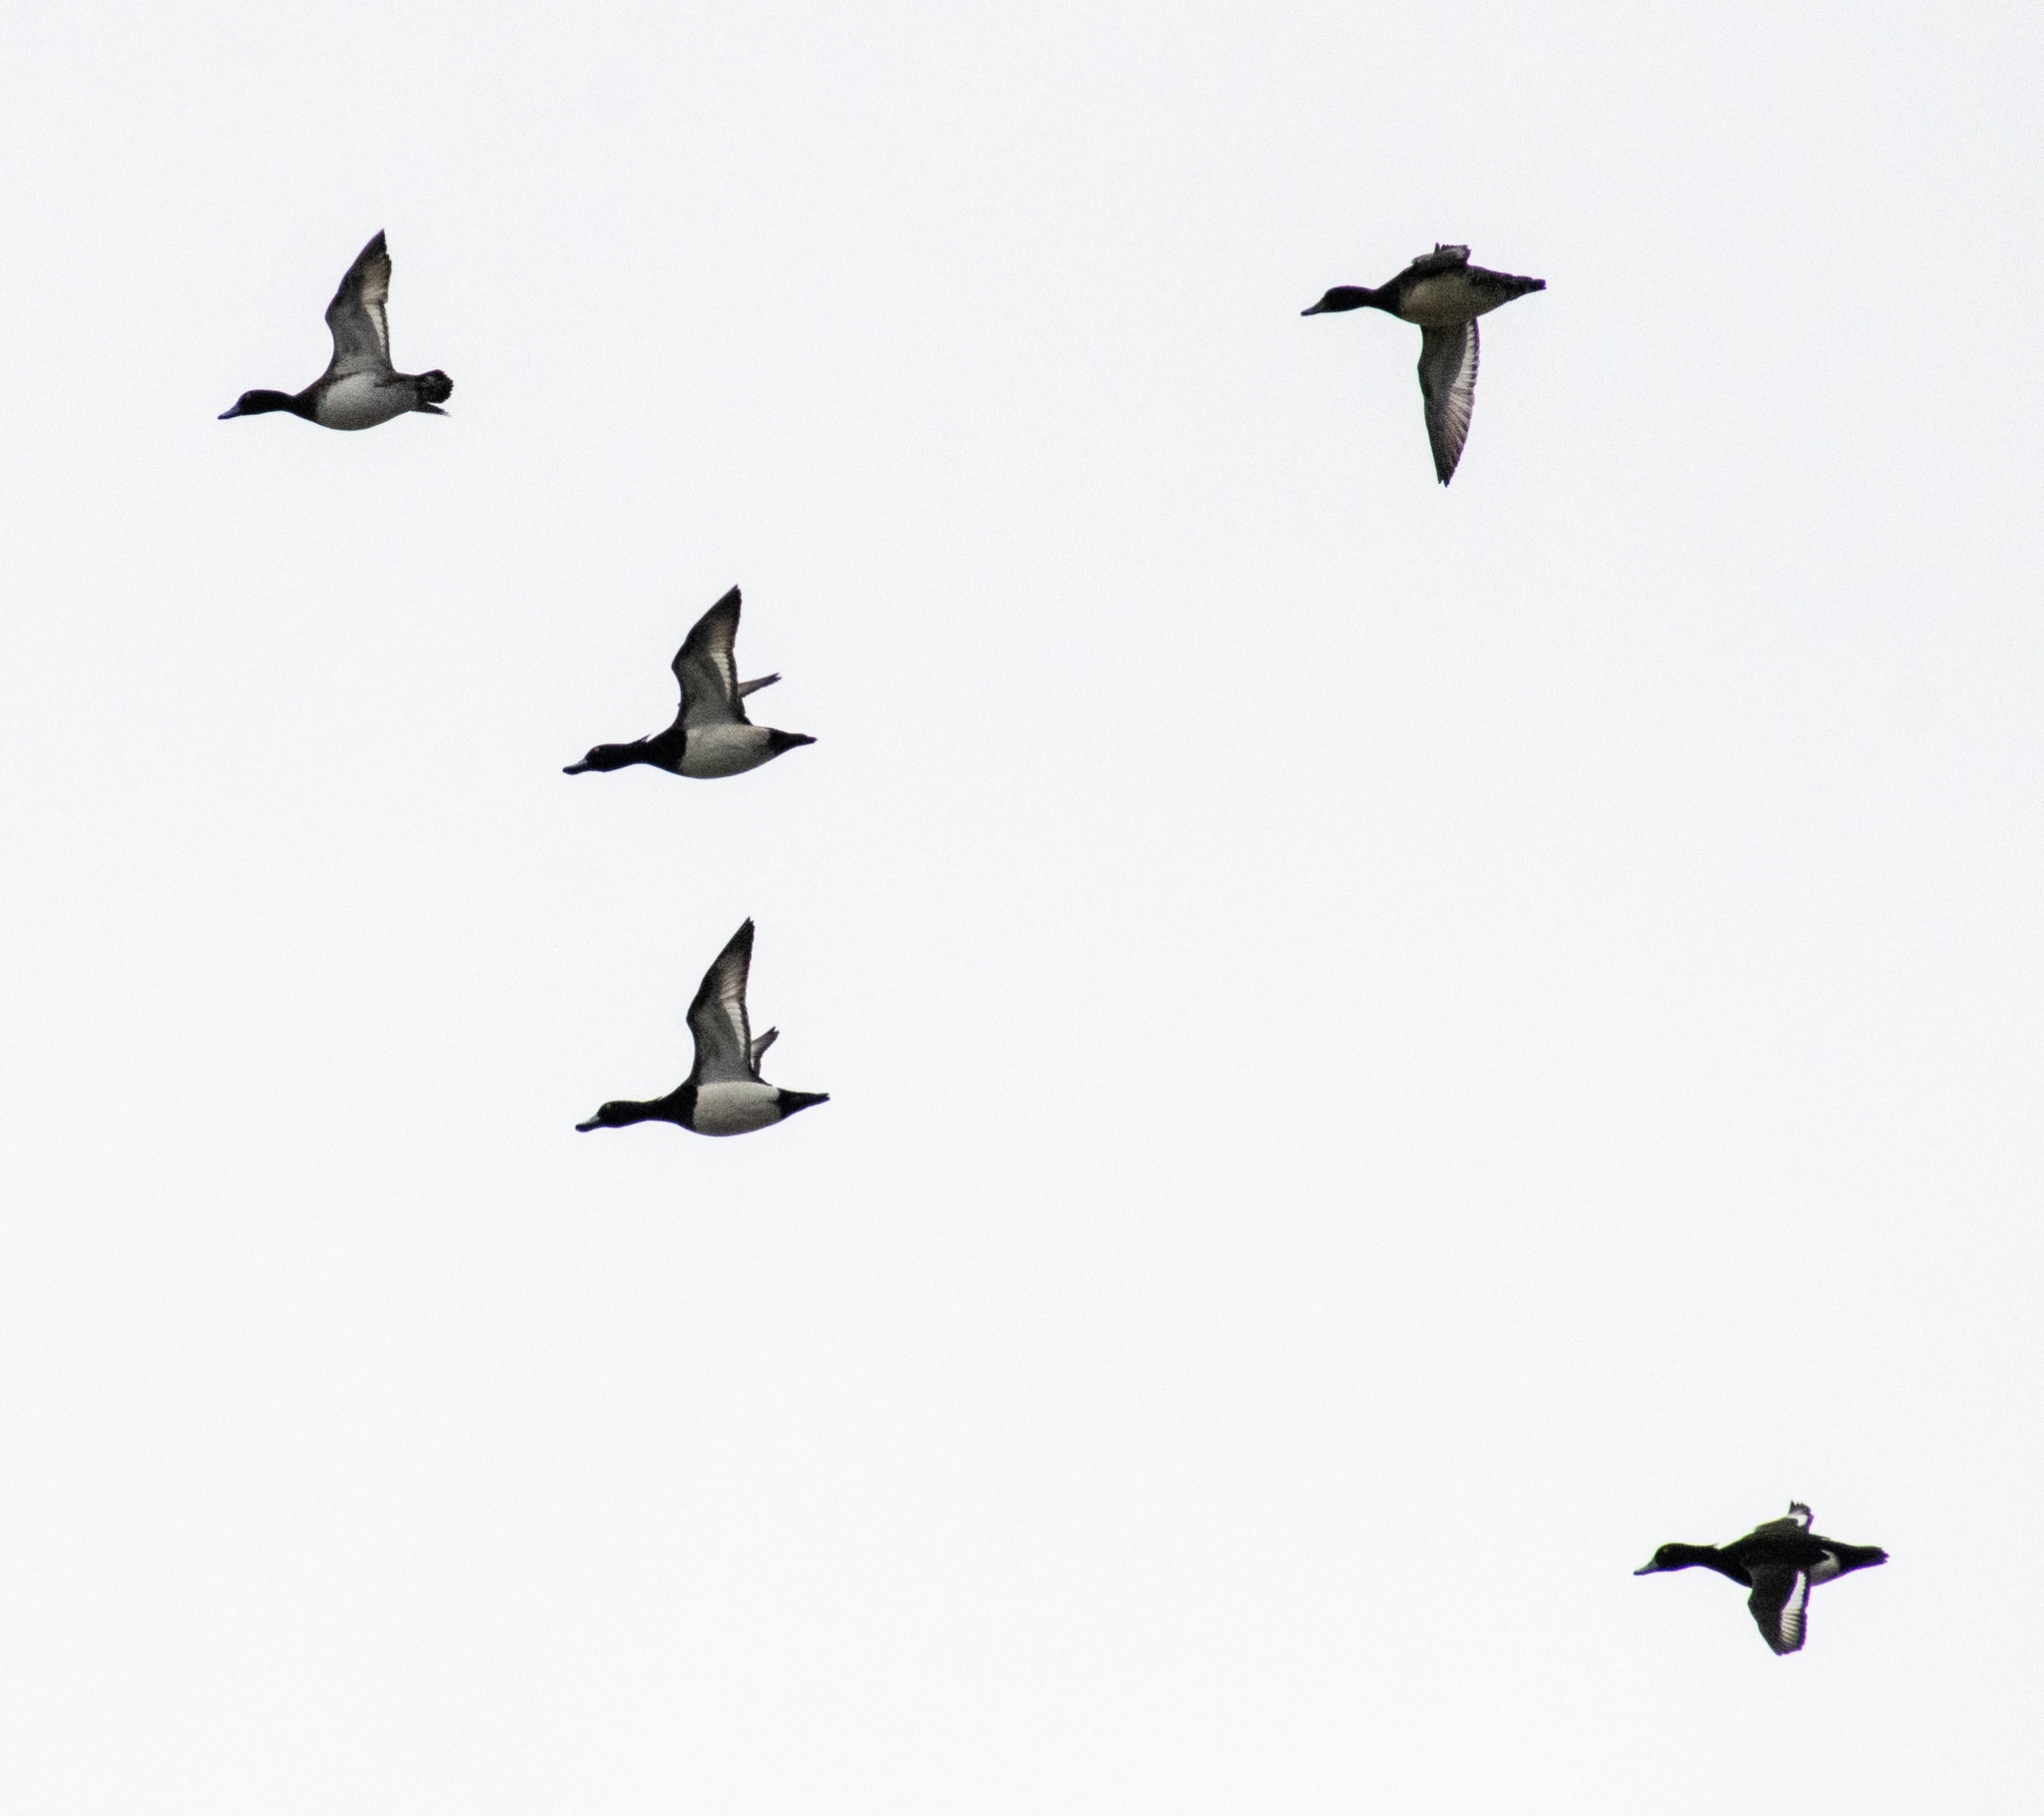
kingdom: Animalia
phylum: Chordata
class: Aves
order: Anseriformes
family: Anatidae
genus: Aythya
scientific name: Aythya fuligula
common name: Tufted duck
